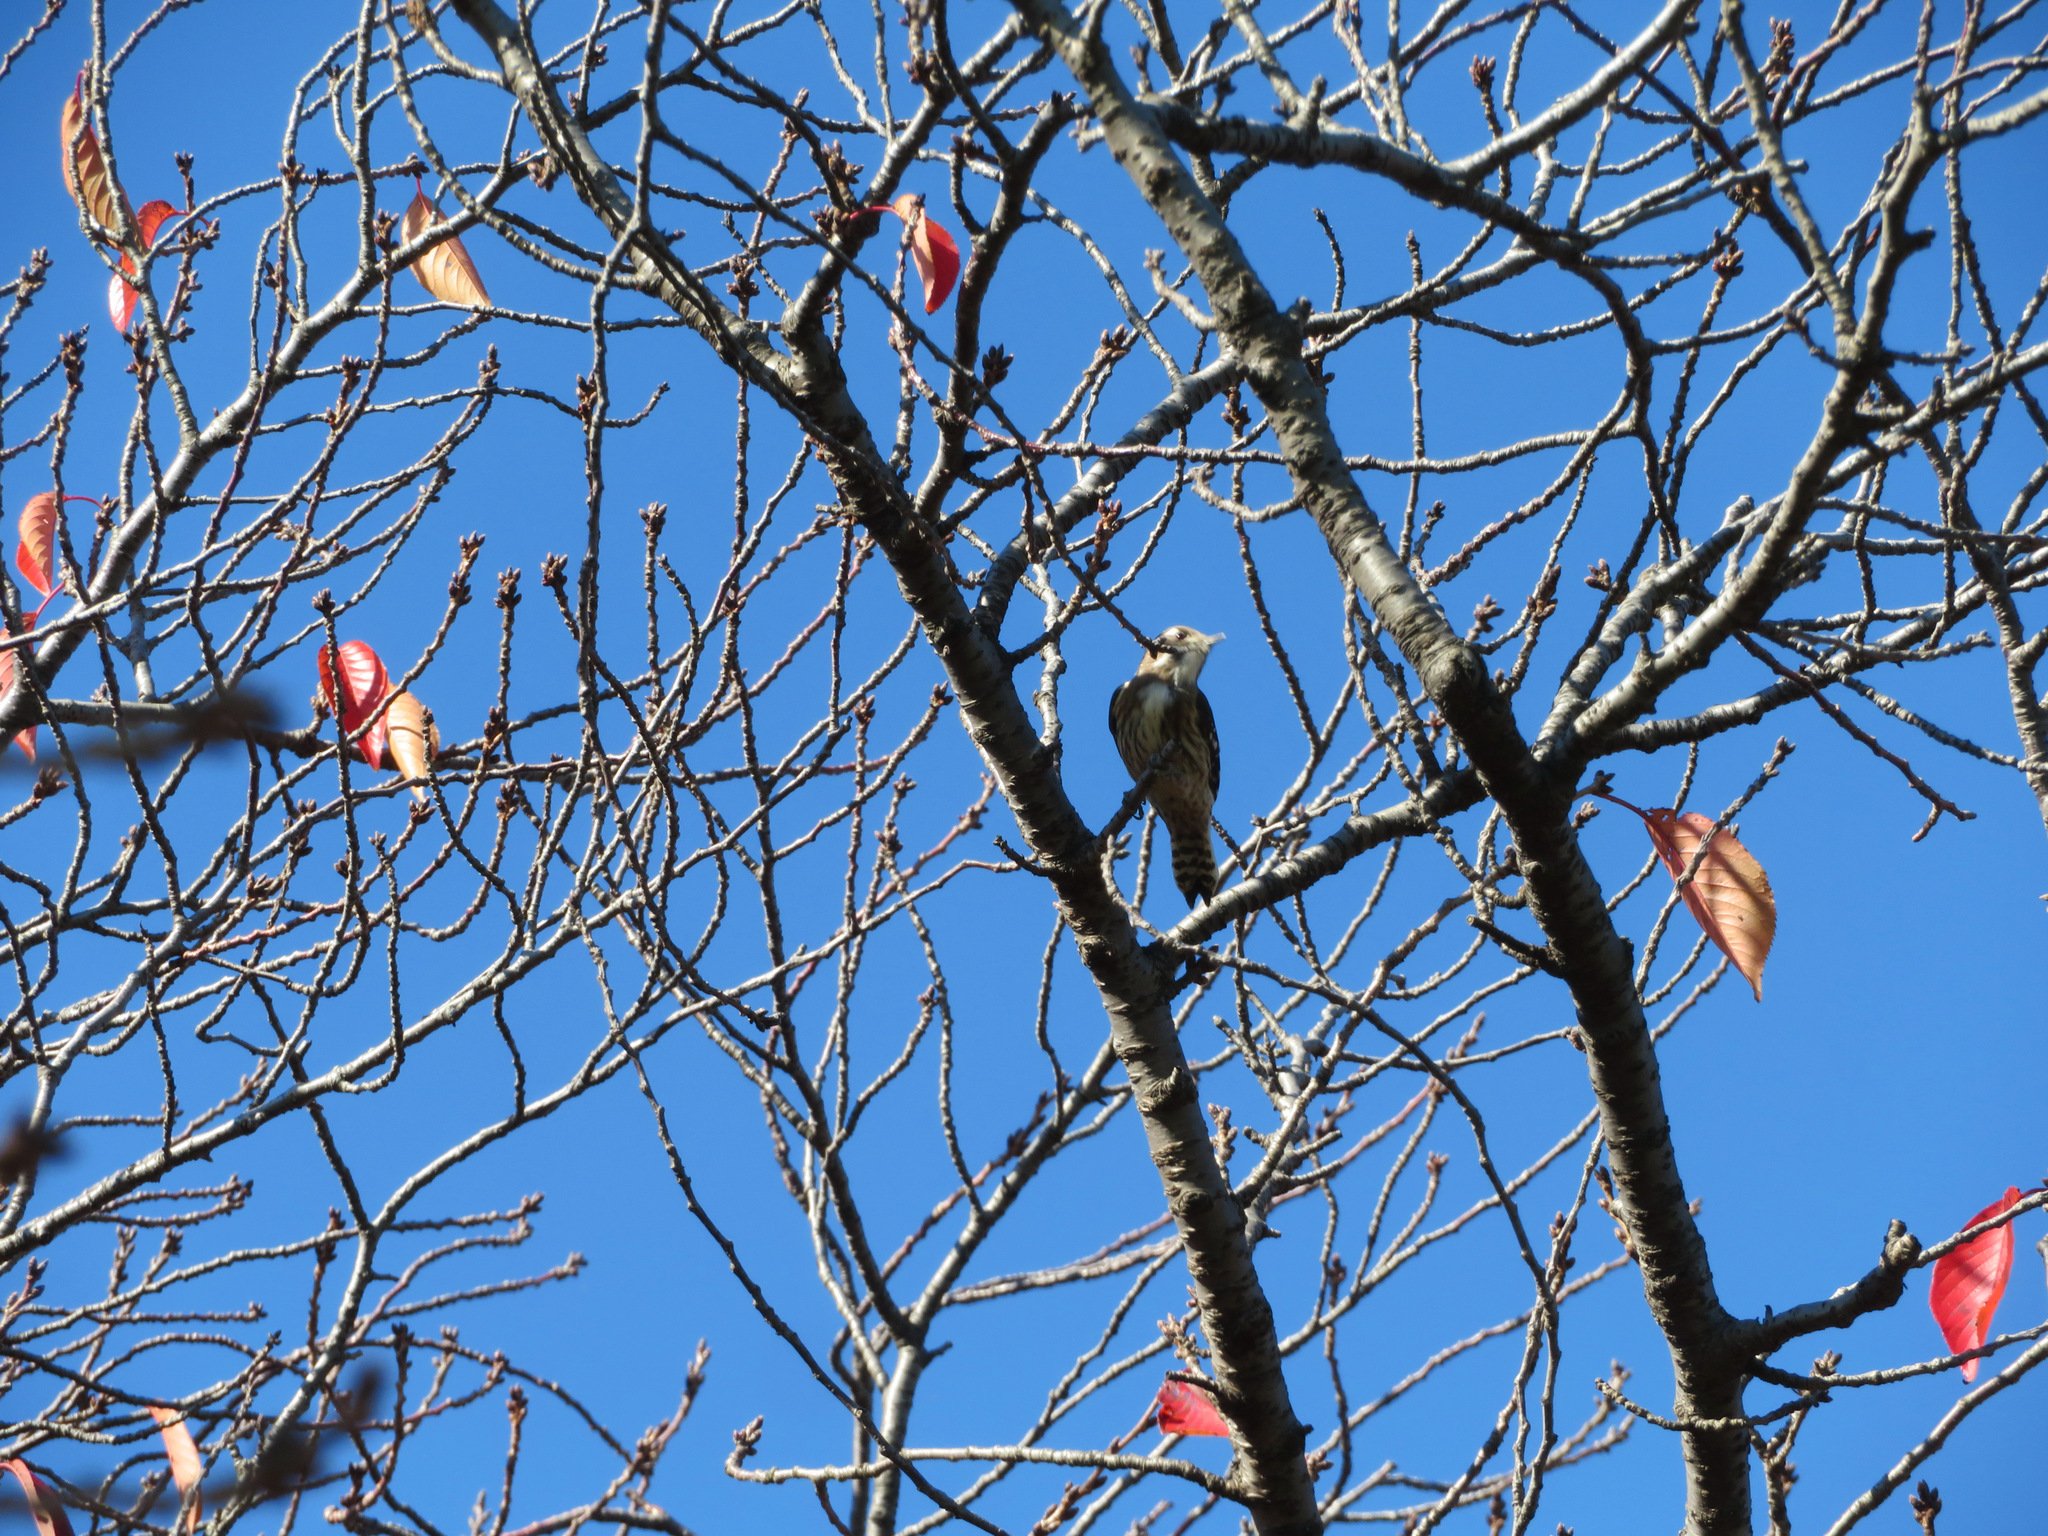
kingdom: Animalia
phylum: Chordata
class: Aves
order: Piciformes
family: Picidae
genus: Yungipicus
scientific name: Yungipicus kizuki
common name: Japanese pygmy woodpecker
